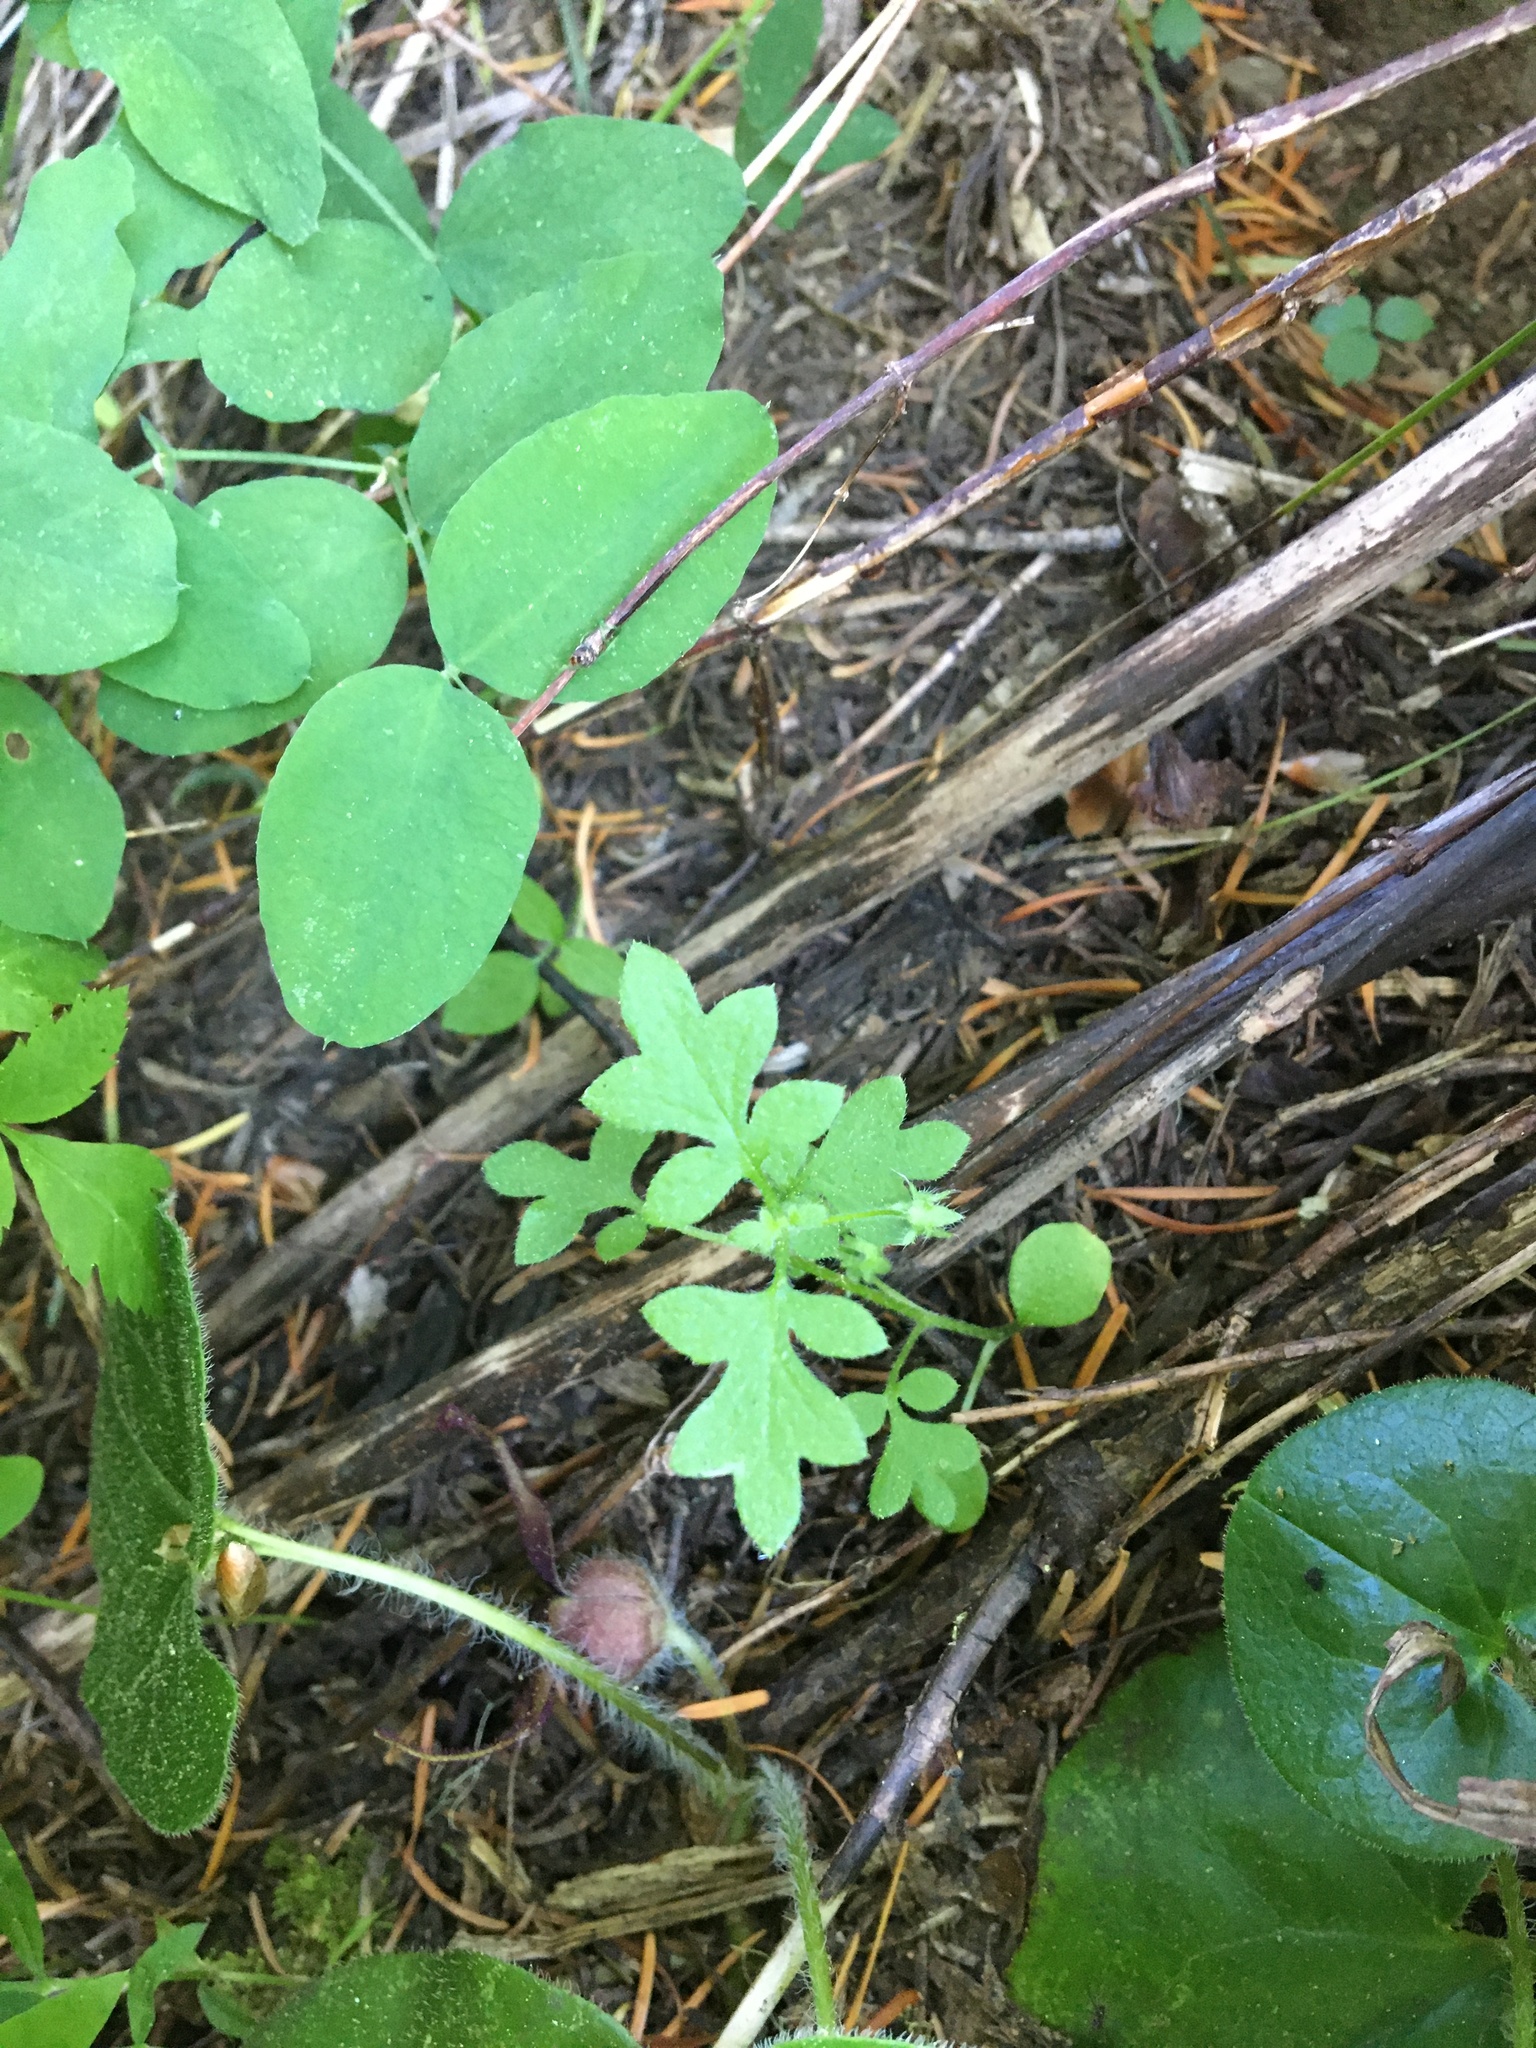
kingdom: Plantae
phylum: Tracheophyta
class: Magnoliopsida
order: Boraginales
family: Hydrophyllaceae
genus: Nemophila
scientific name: Nemophila parviflora
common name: Small-flowered baby-blue-eyes
